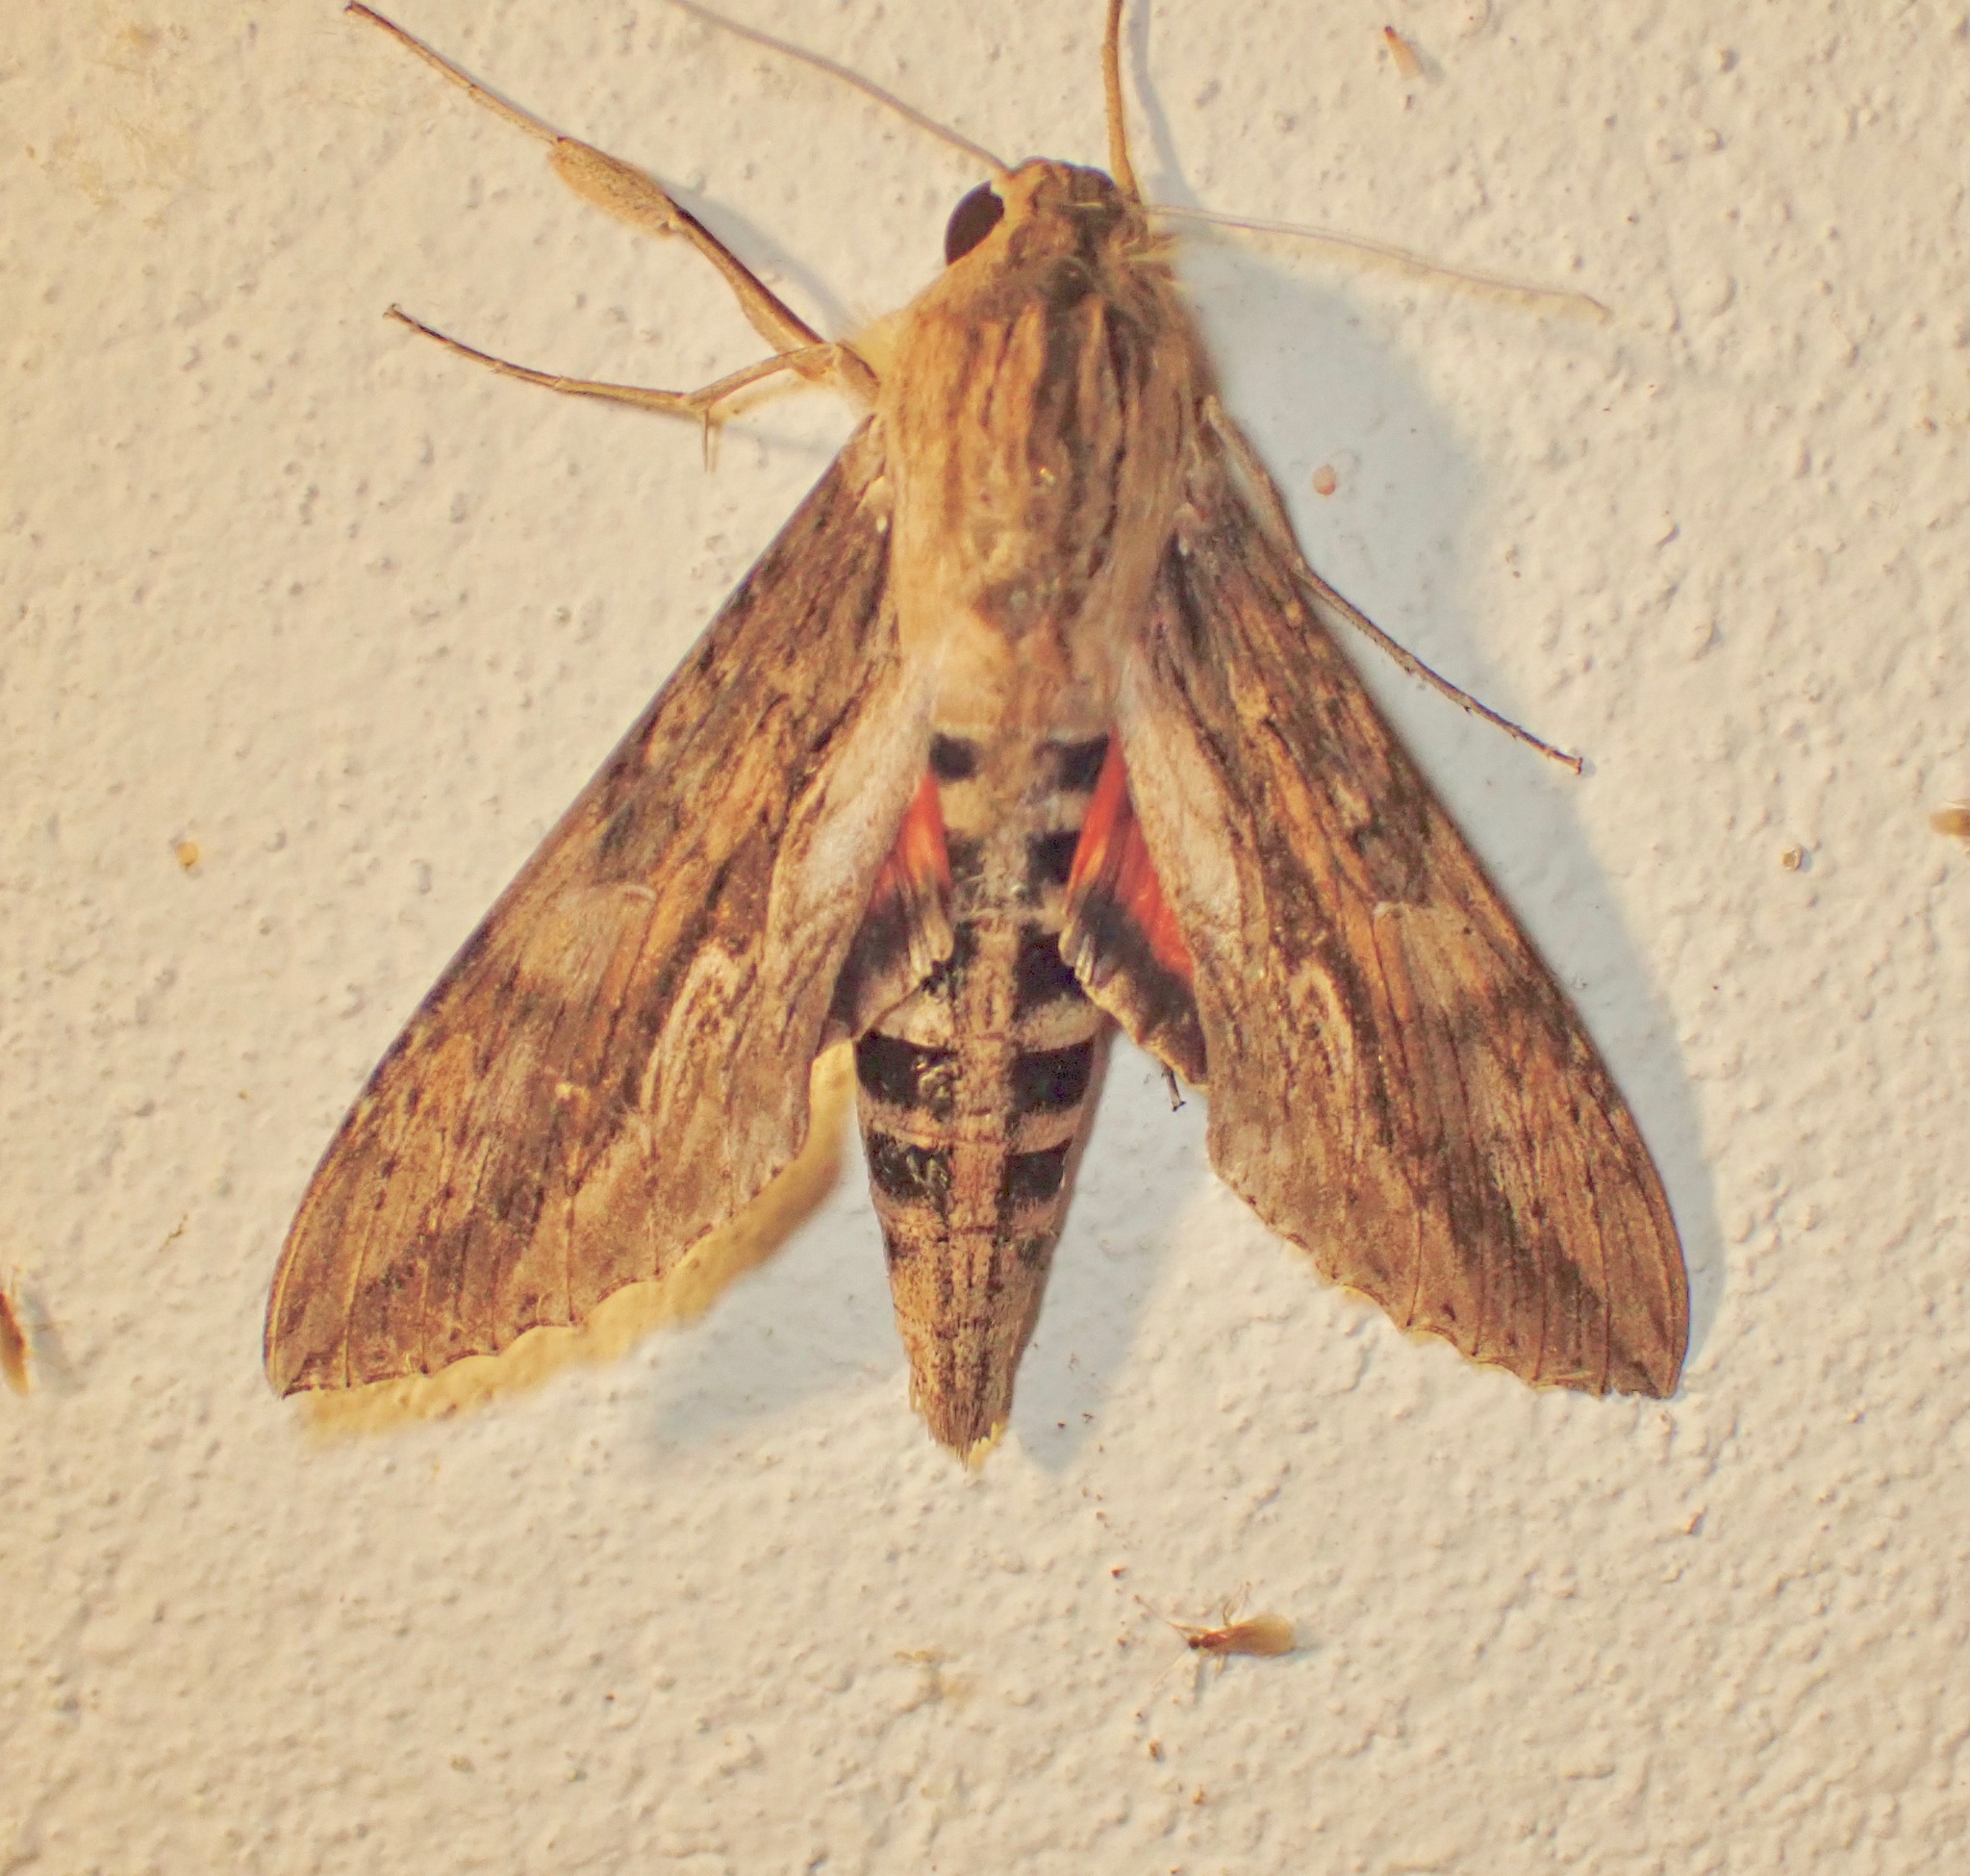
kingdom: Animalia
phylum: Arthropoda
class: Insecta
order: Lepidoptera
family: Sphingidae
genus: Erinnyis
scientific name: Erinnyis ello
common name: Ello sphinx
